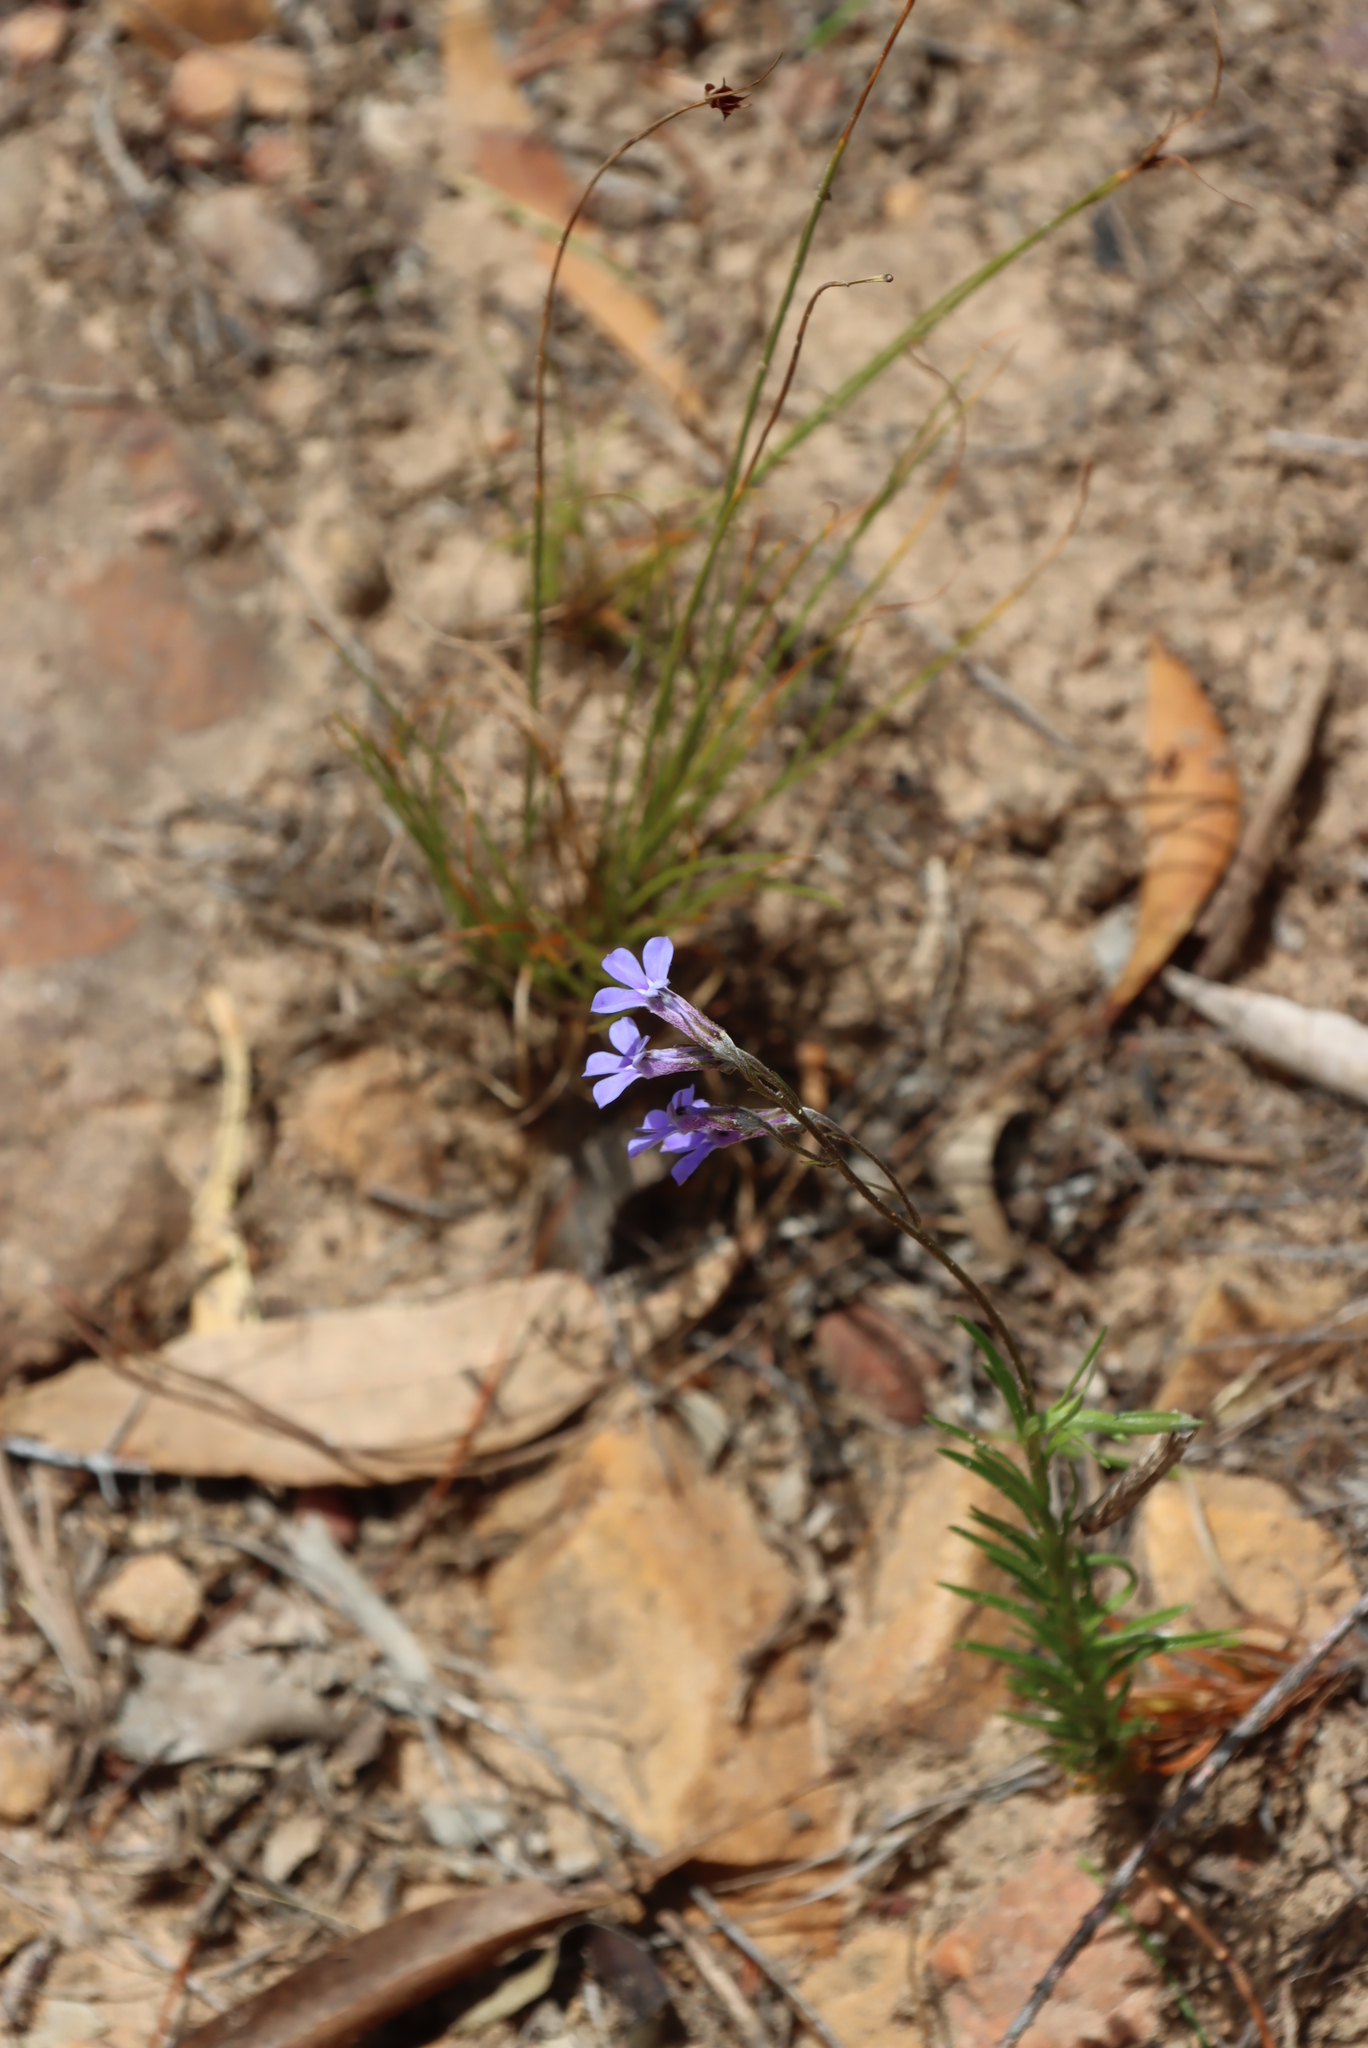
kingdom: Plantae
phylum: Tracheophyta
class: Magnoliopsida
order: Asterales
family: Campanulaceae
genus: Lobelia
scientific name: Lobelia pinifolia
